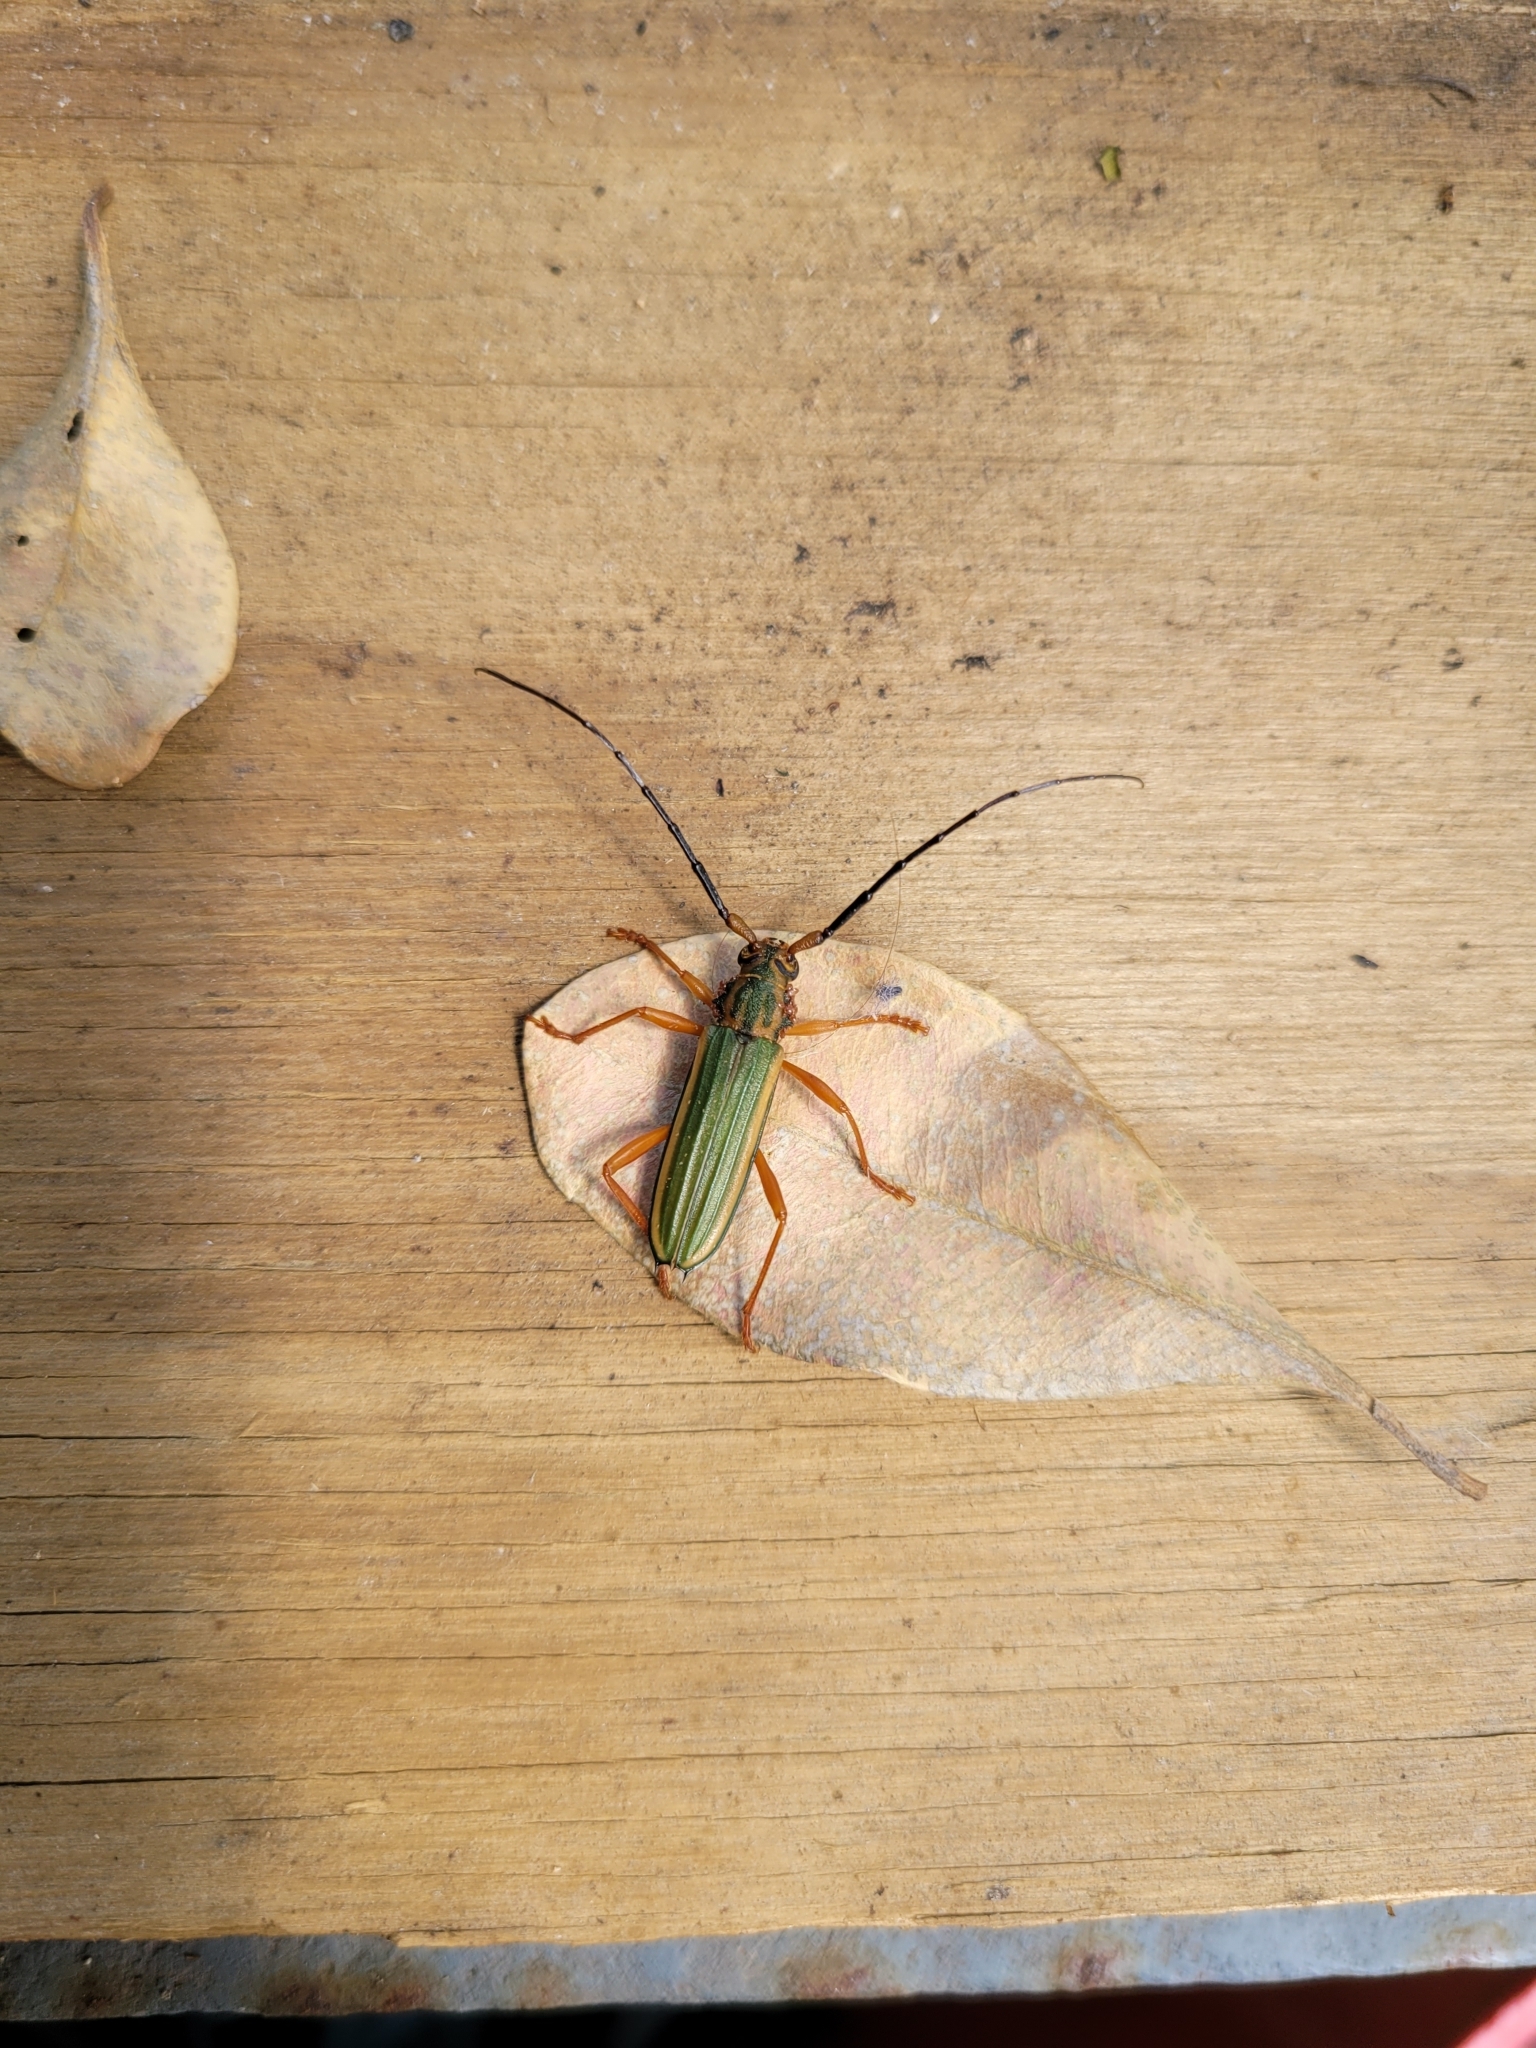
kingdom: Animalia
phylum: Arthropoda
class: Insecta
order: Coleoptera
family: Cerambycidae
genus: Chlorida
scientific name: Chlorida festiva
